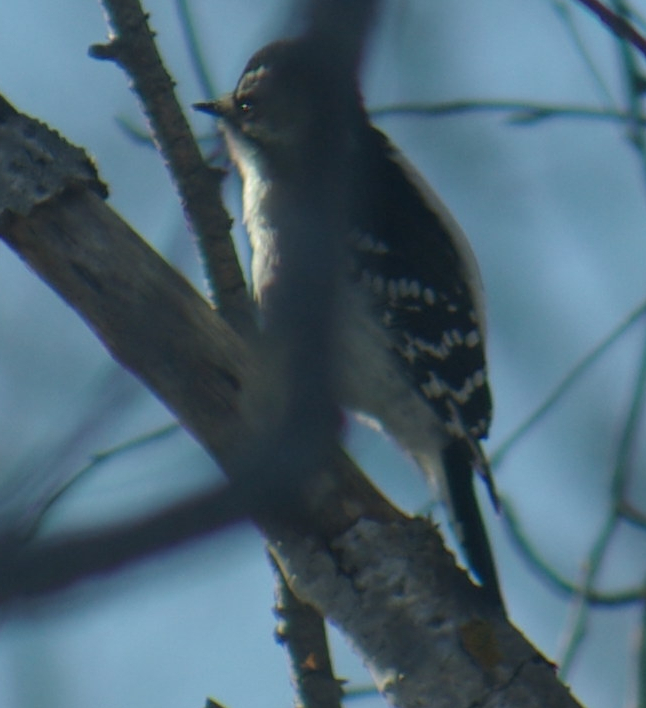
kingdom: Animalia
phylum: Chordata
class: Aves
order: Piciformes
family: Picidae
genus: Dryobates
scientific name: Dryobates pubescens
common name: Downy woodpecker
